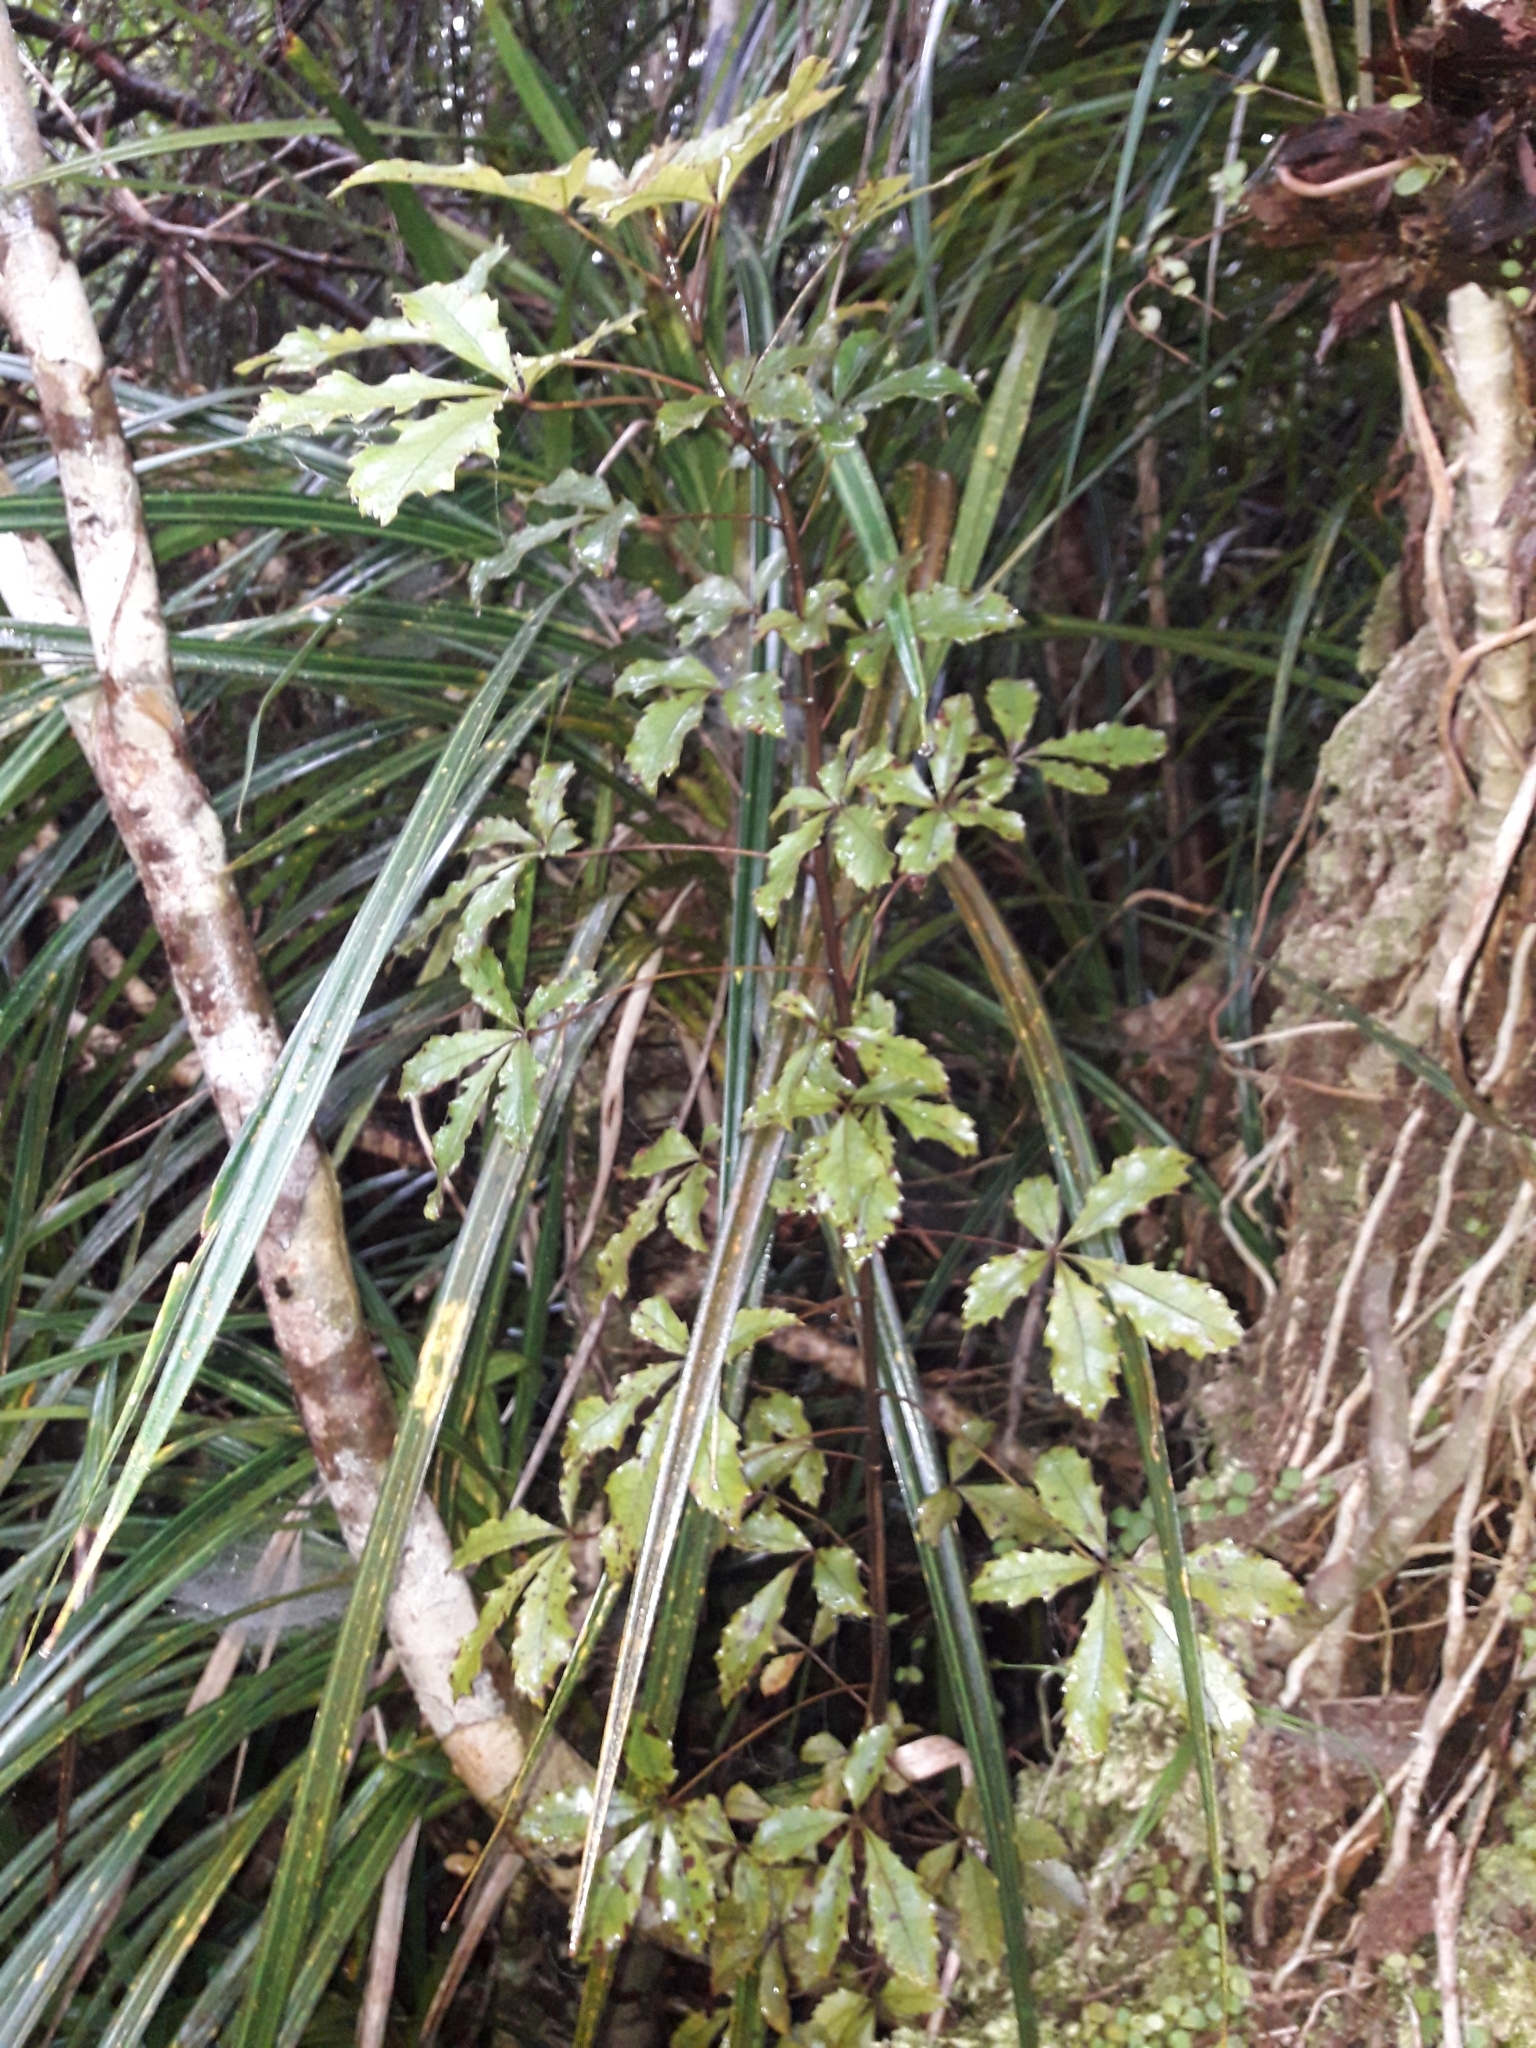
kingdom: Plantae
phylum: Tracheophyta
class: Magnoliopsida
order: Apiales
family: Araliaceae
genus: Pseudopanax
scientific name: Pseudopanax discolor
